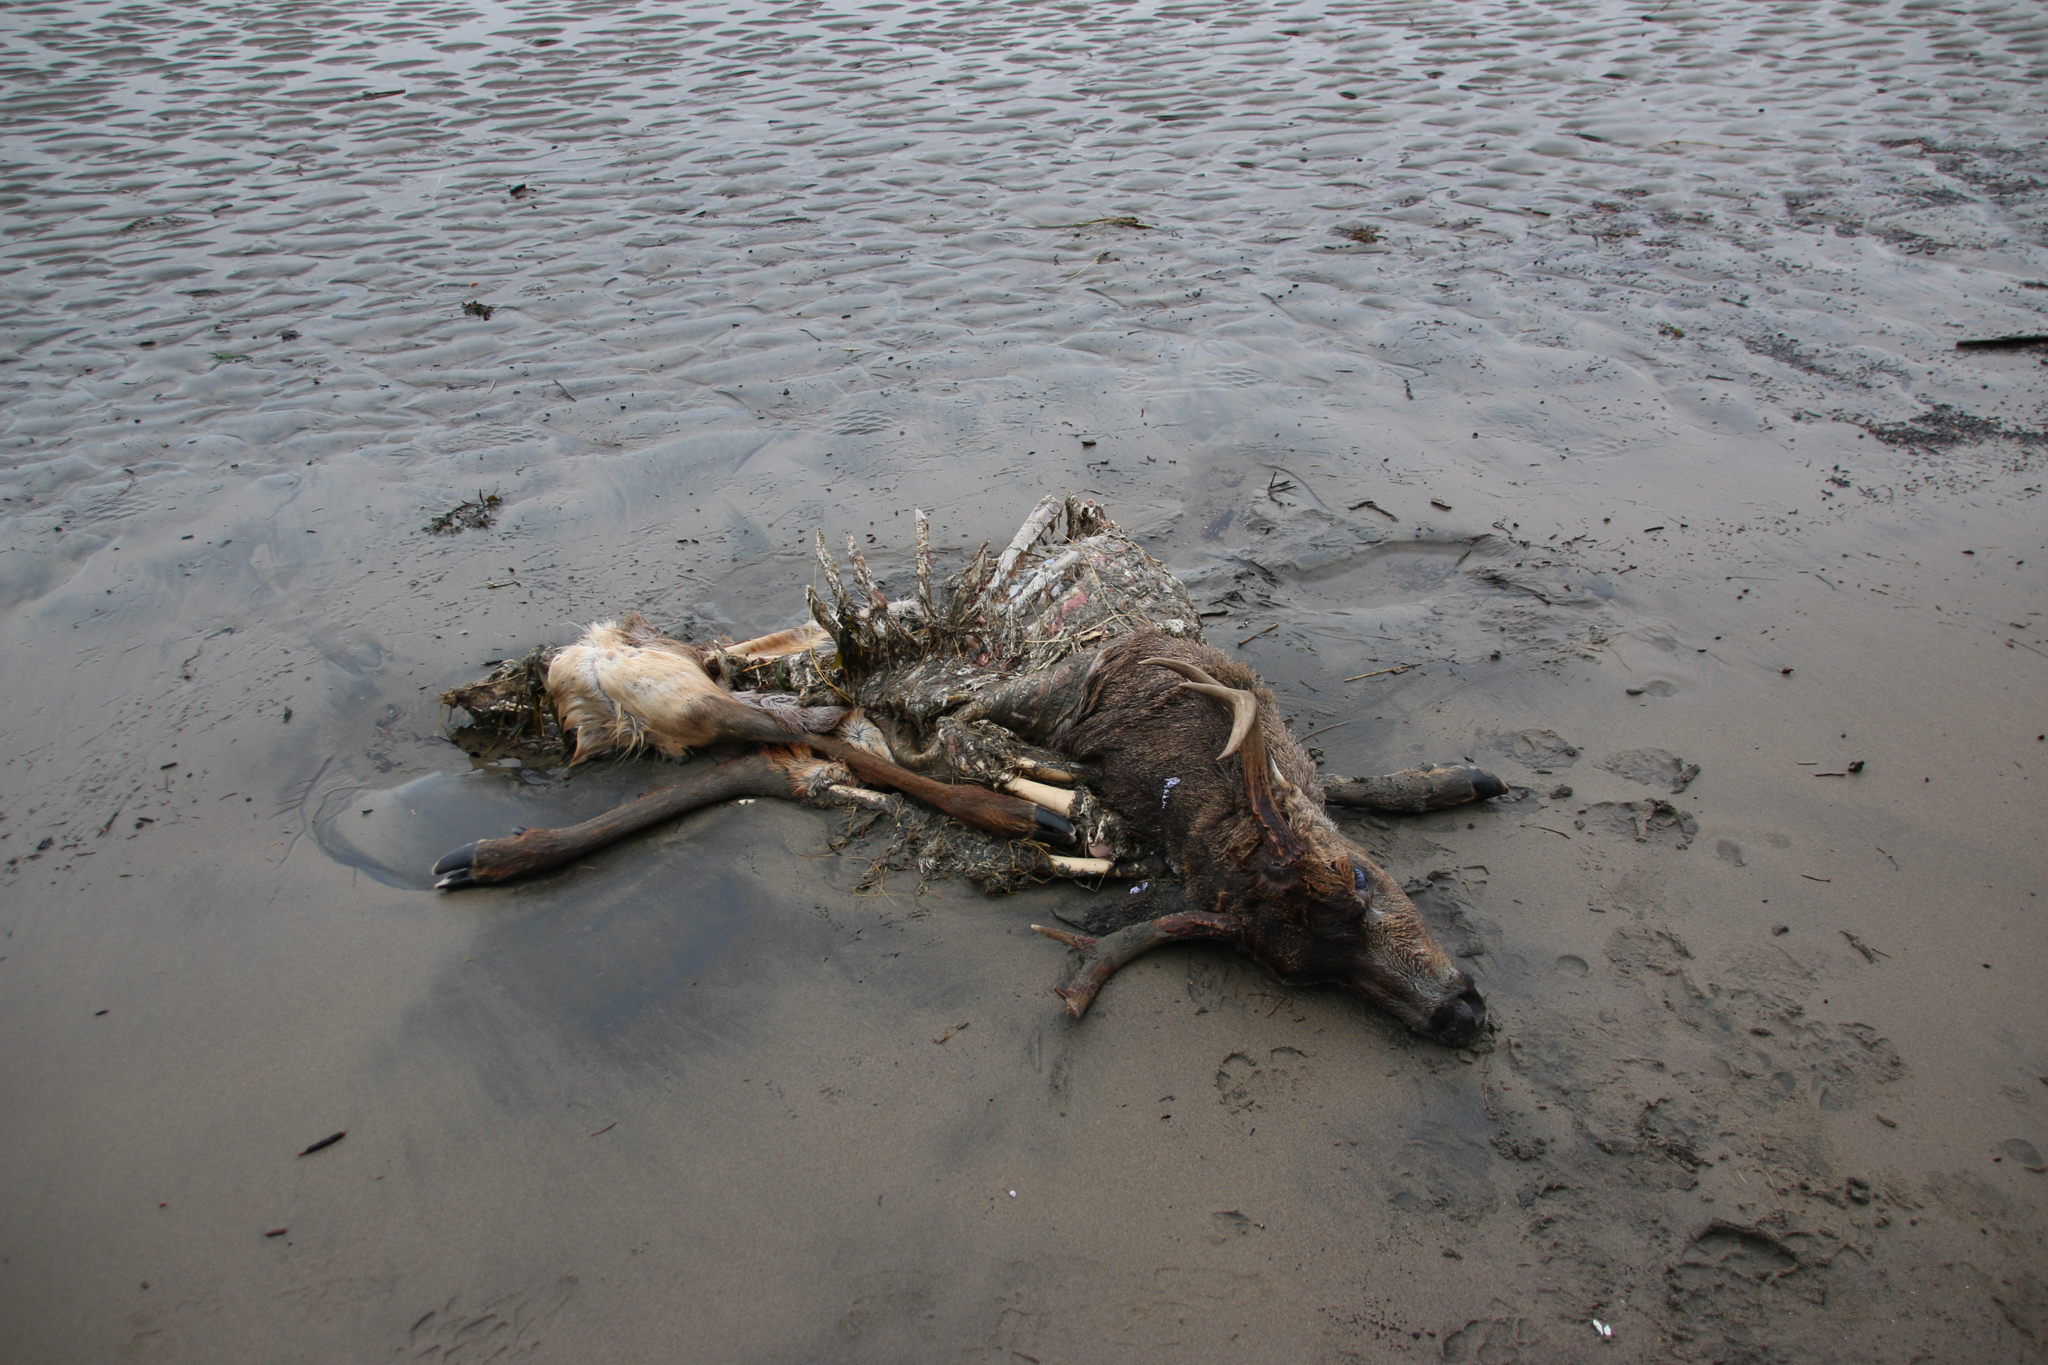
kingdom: Animalia
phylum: Chordata
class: Mammalia
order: Artiodactyla
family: Cervidae
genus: Odocoileus
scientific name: Odocoileus hemionus
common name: Mule deer
